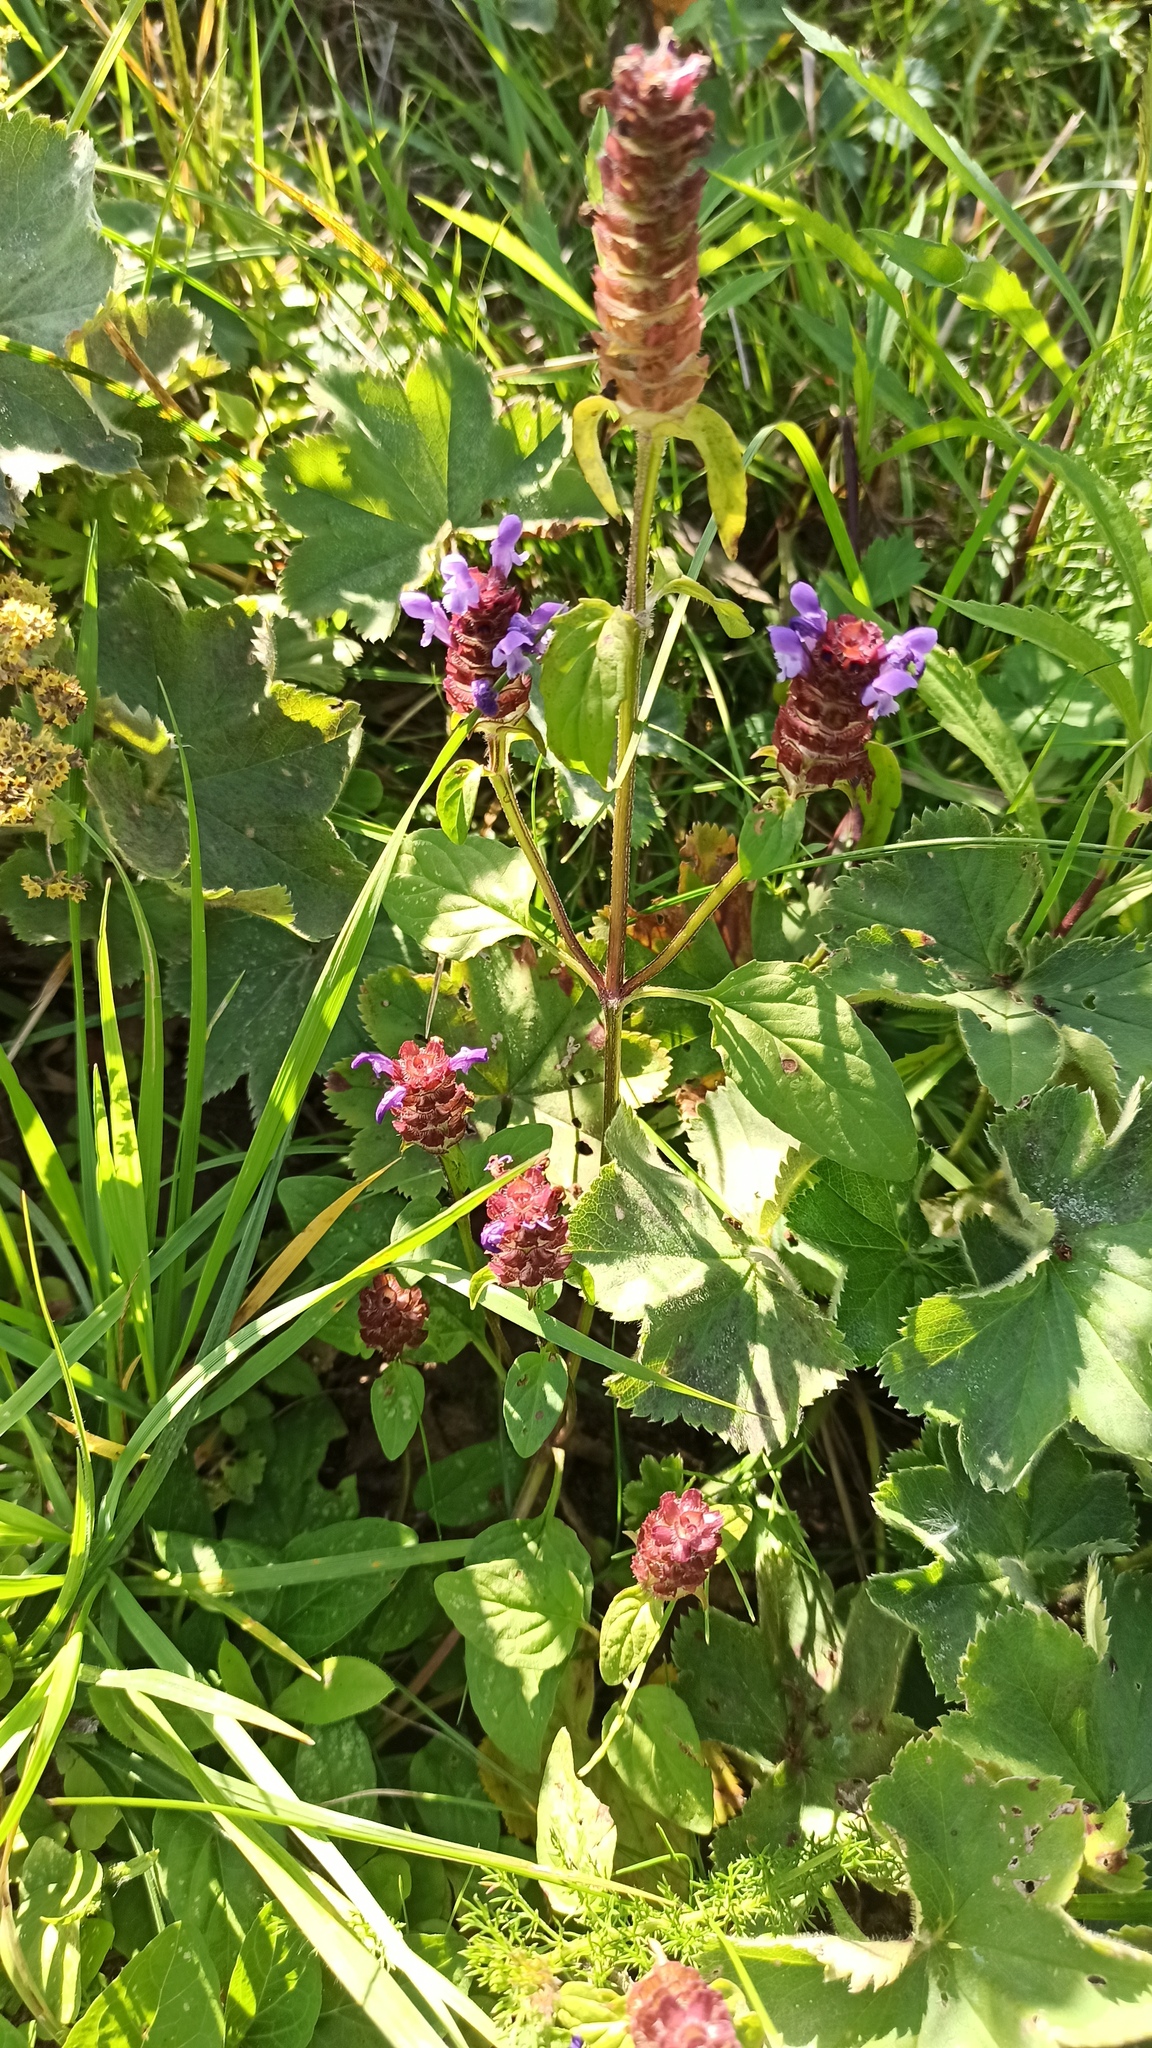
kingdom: Plantae
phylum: Tracheophyta
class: Magnoliopsida
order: Lamiales
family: Lamiaceae
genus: Prunella
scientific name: Prunella vulgaris
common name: Heal-all
